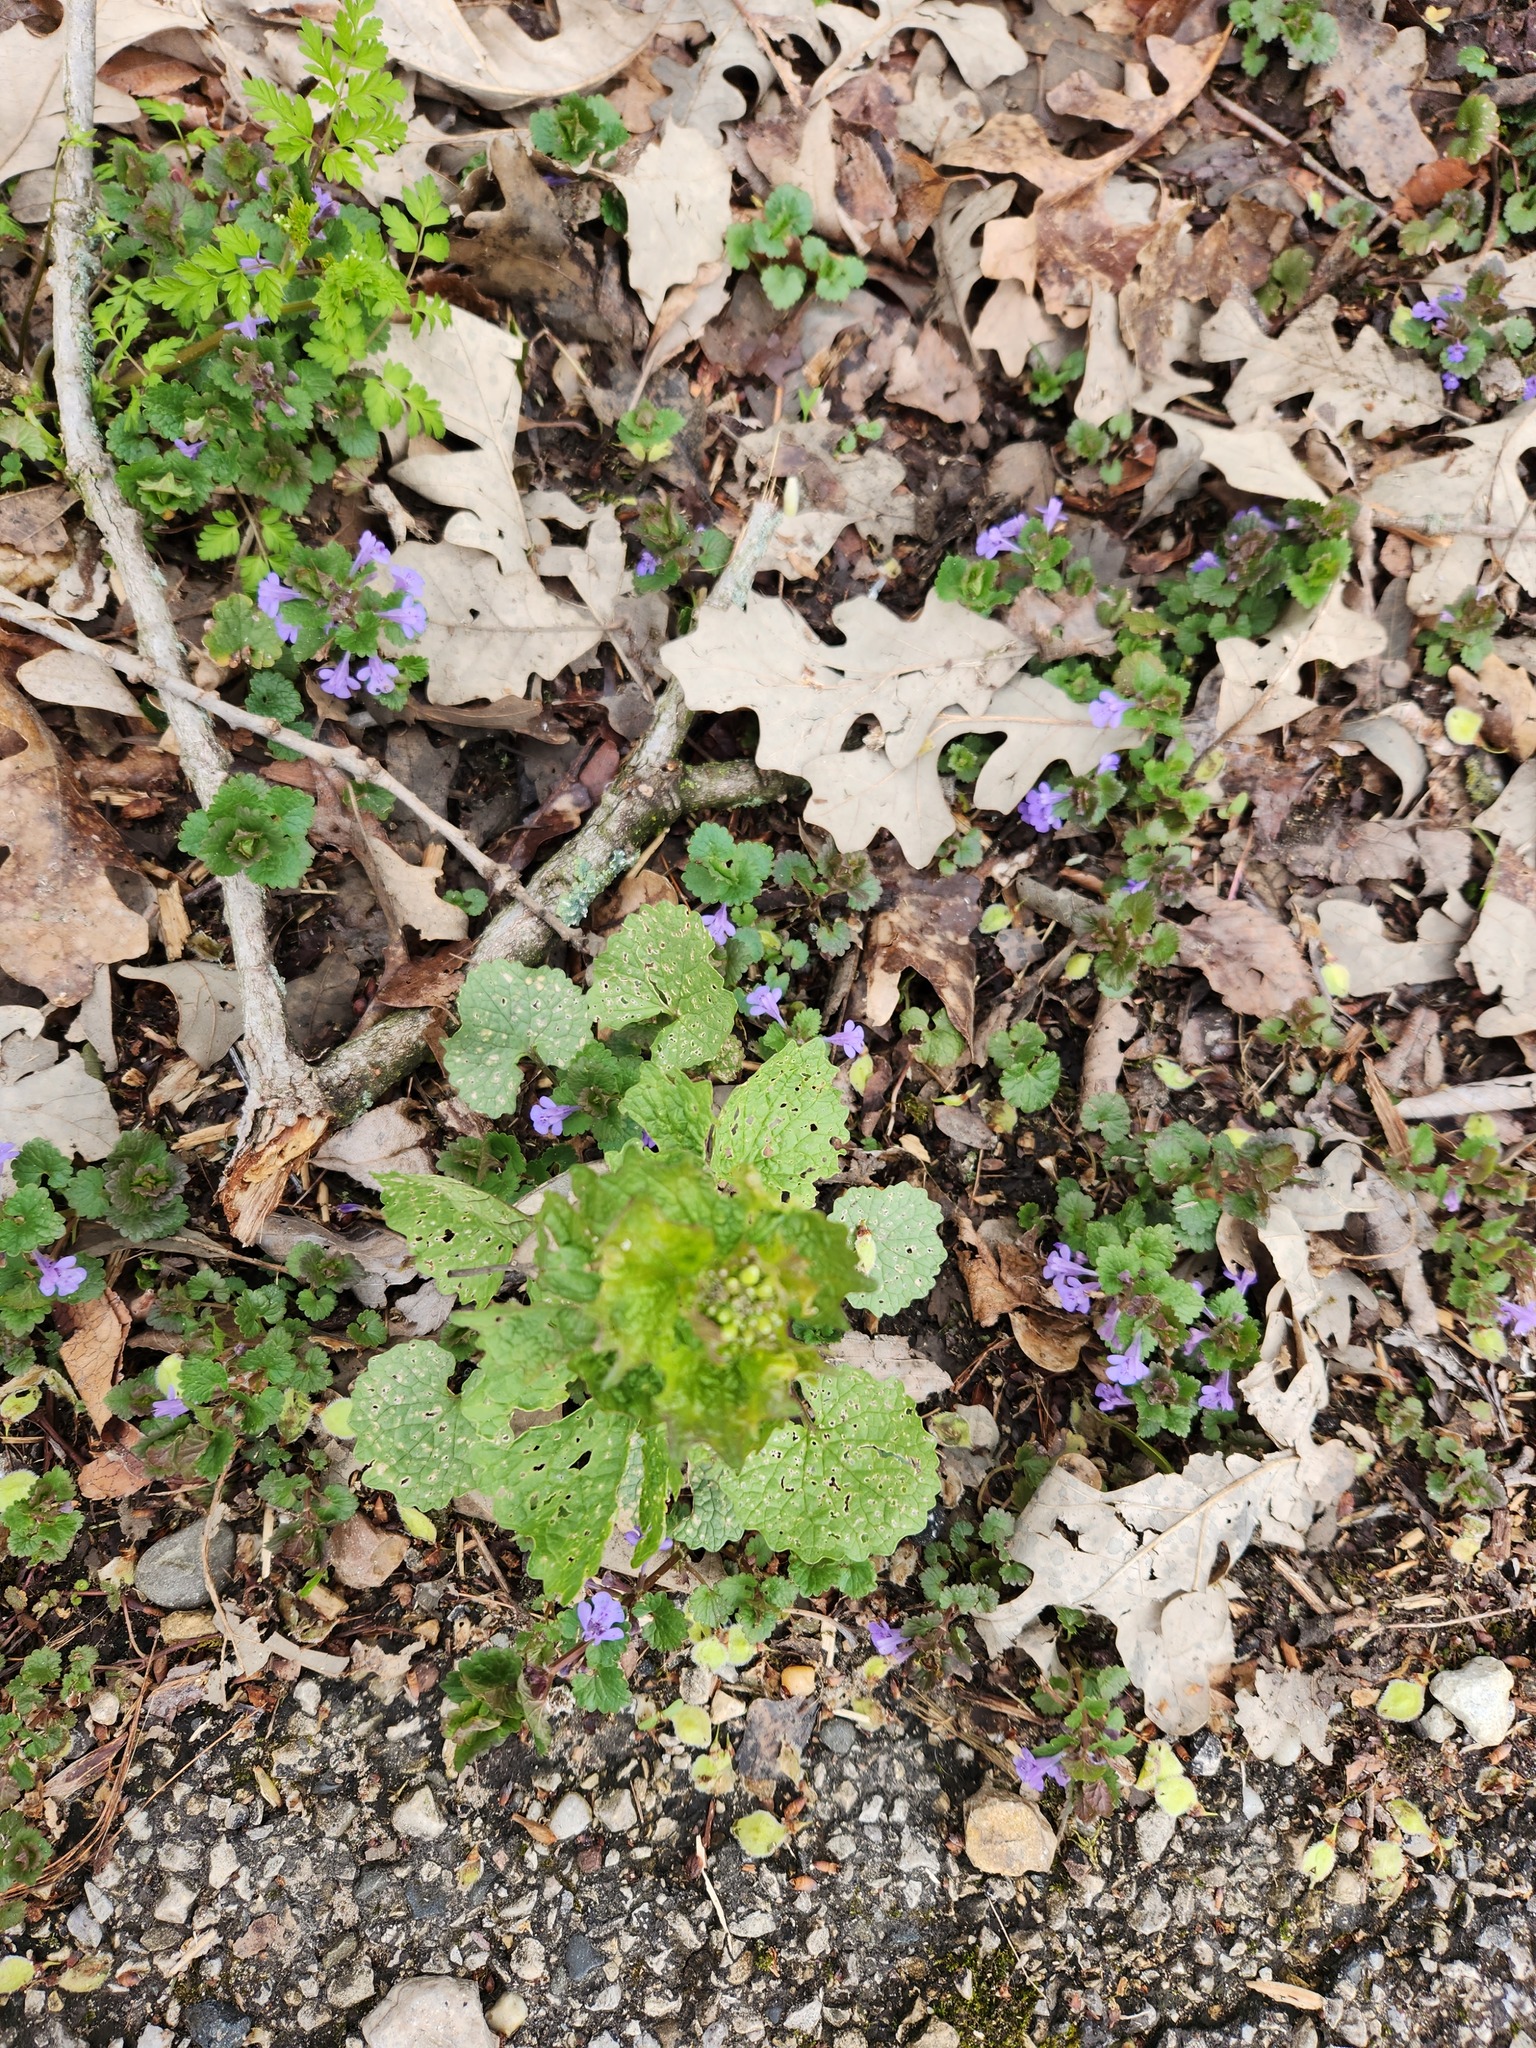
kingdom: Plantae
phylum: Tracheophyta
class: Magnoliopsida
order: Brassicales
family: Brassicaceae
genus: Alliaria
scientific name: Alliaria petiolata
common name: Garlic mustard
